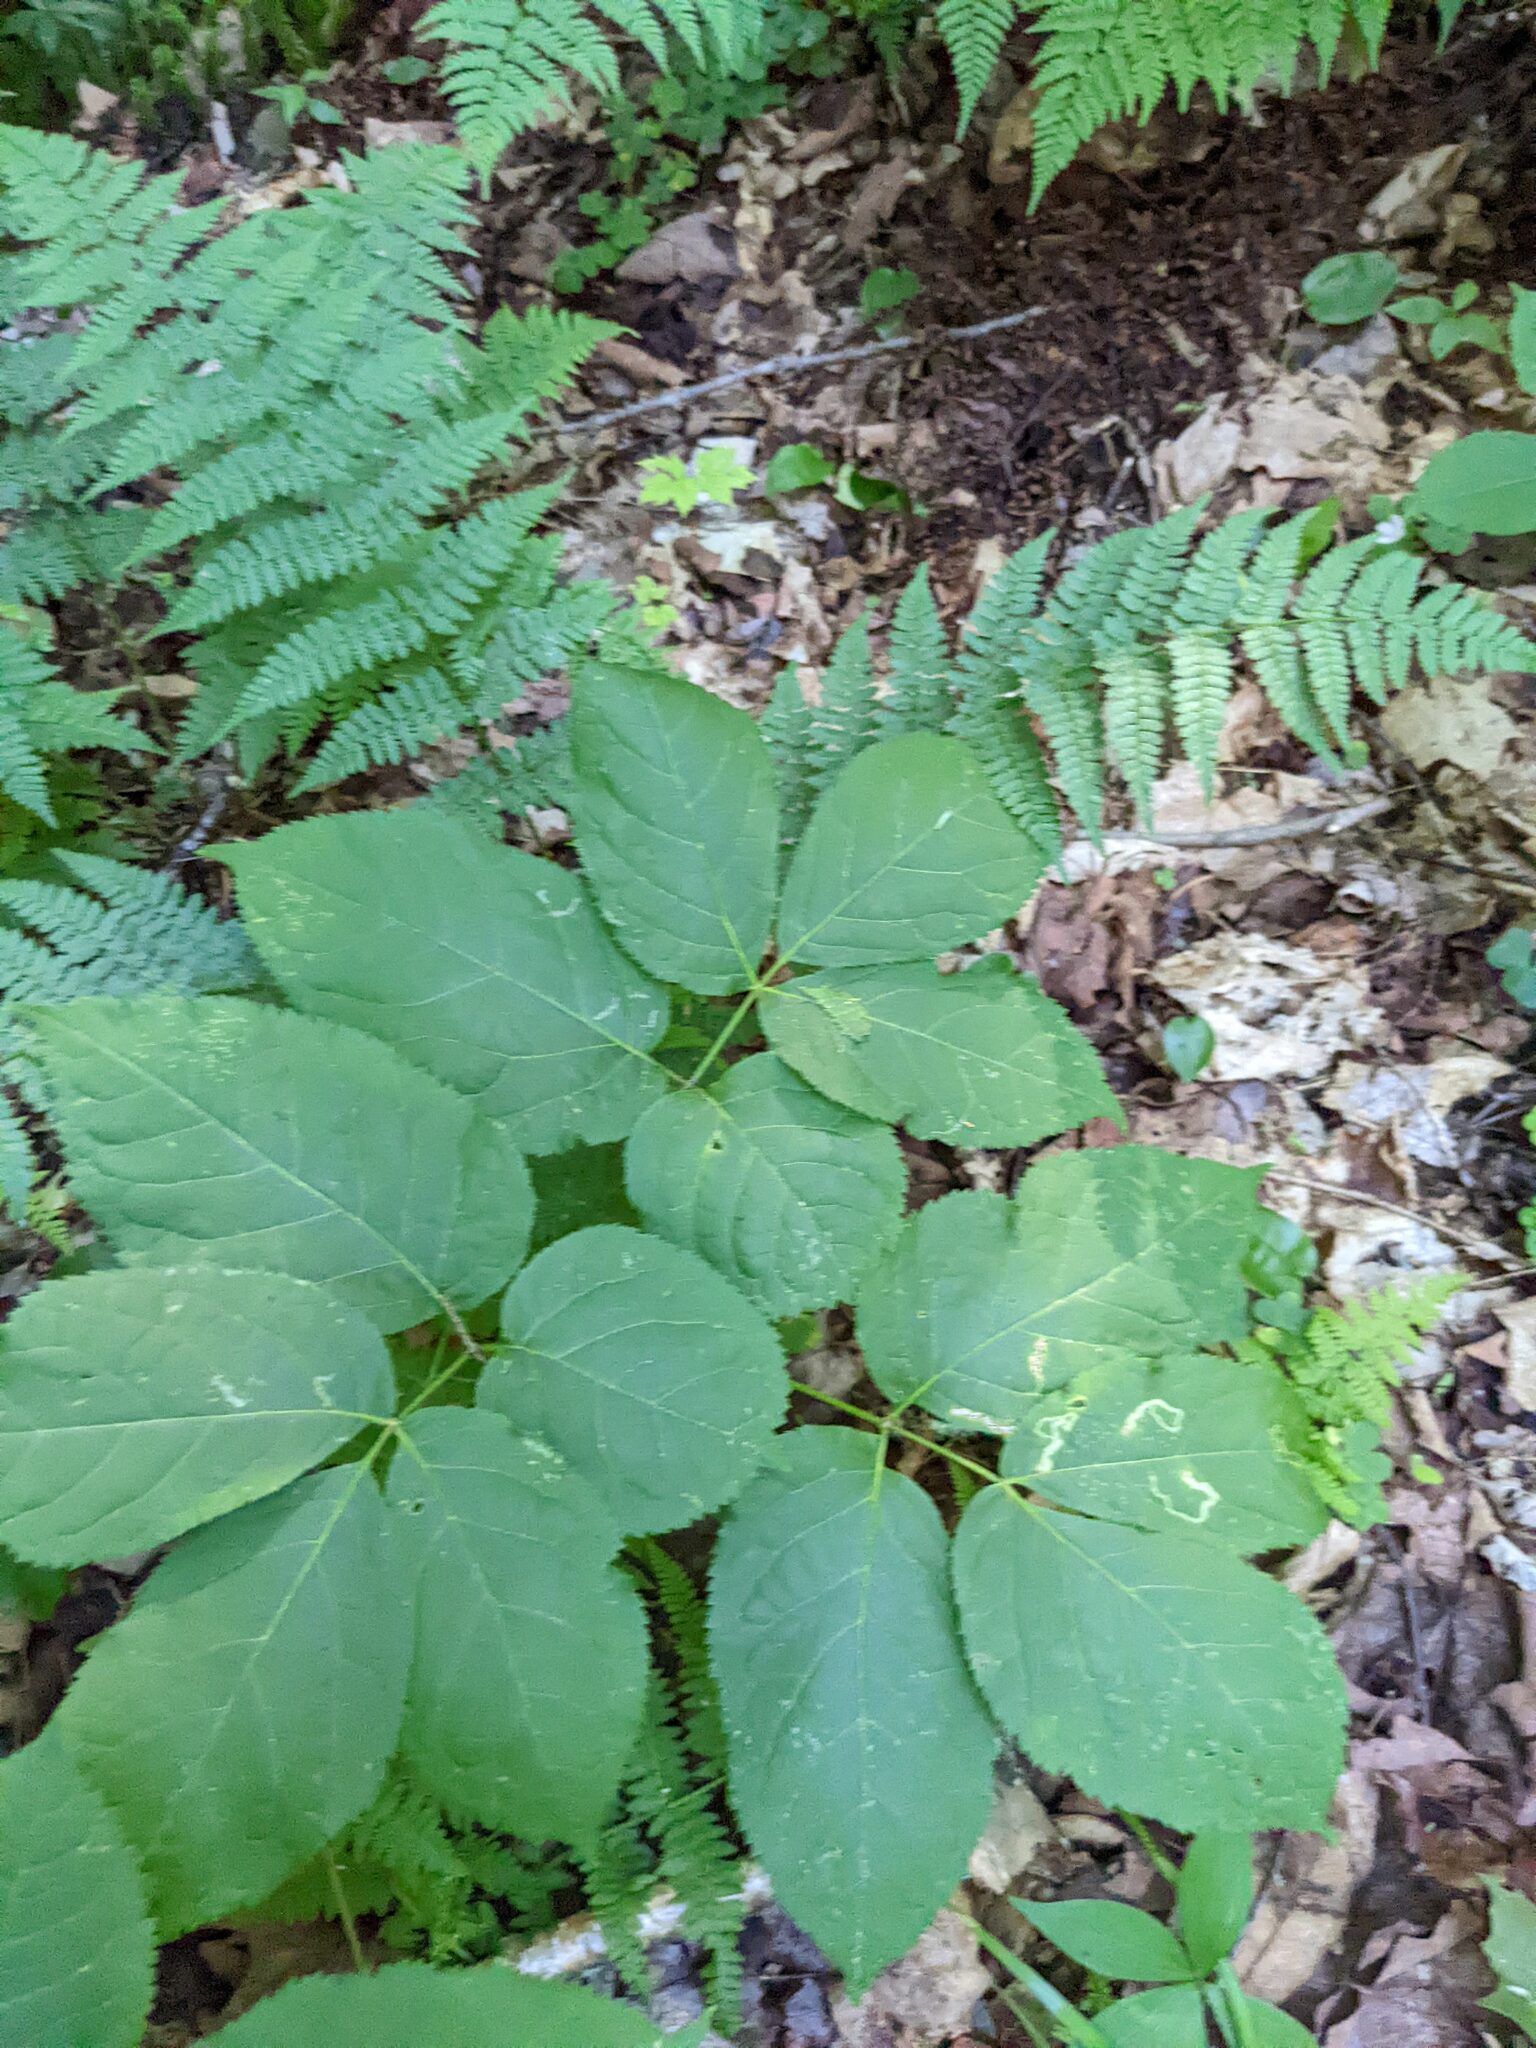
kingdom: Plantae
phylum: Tracheophyta
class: Magnoliopsida
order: Apiales
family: Araliaceae
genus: Aralia
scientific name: Aralia nudicaulis
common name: Wild sarsaparilla
